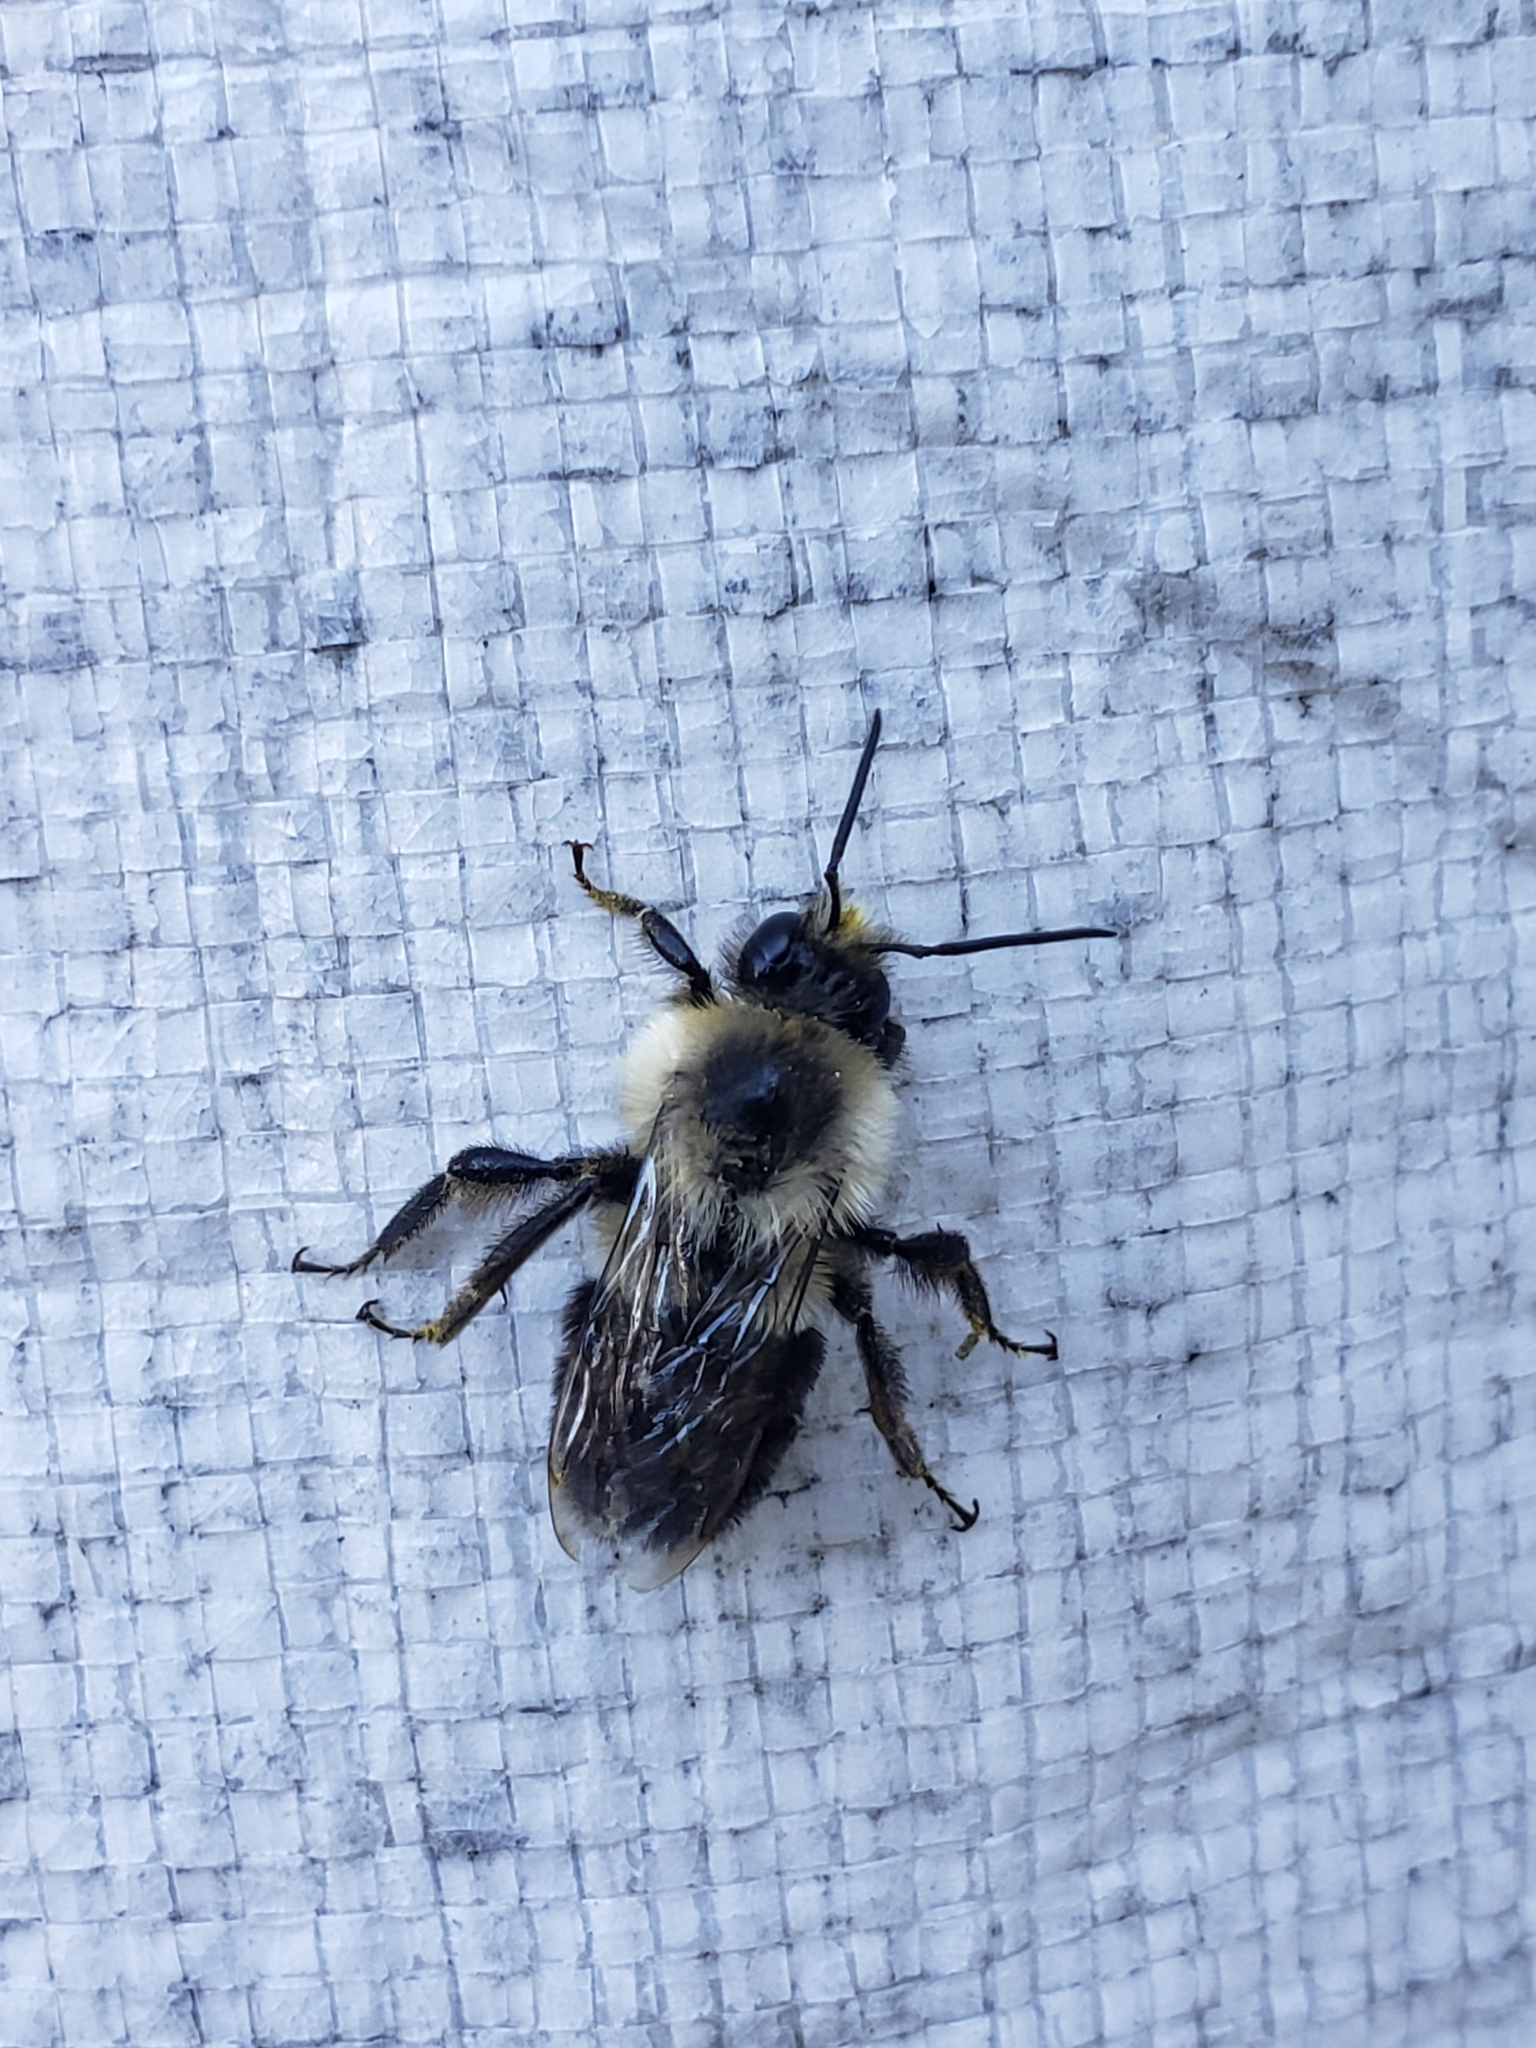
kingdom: Animalia
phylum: Arthropoda
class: Insecta
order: Hymenoptera
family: Apidae
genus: Bombus
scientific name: Bombus impatiens
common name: Common eastern bumble bee
